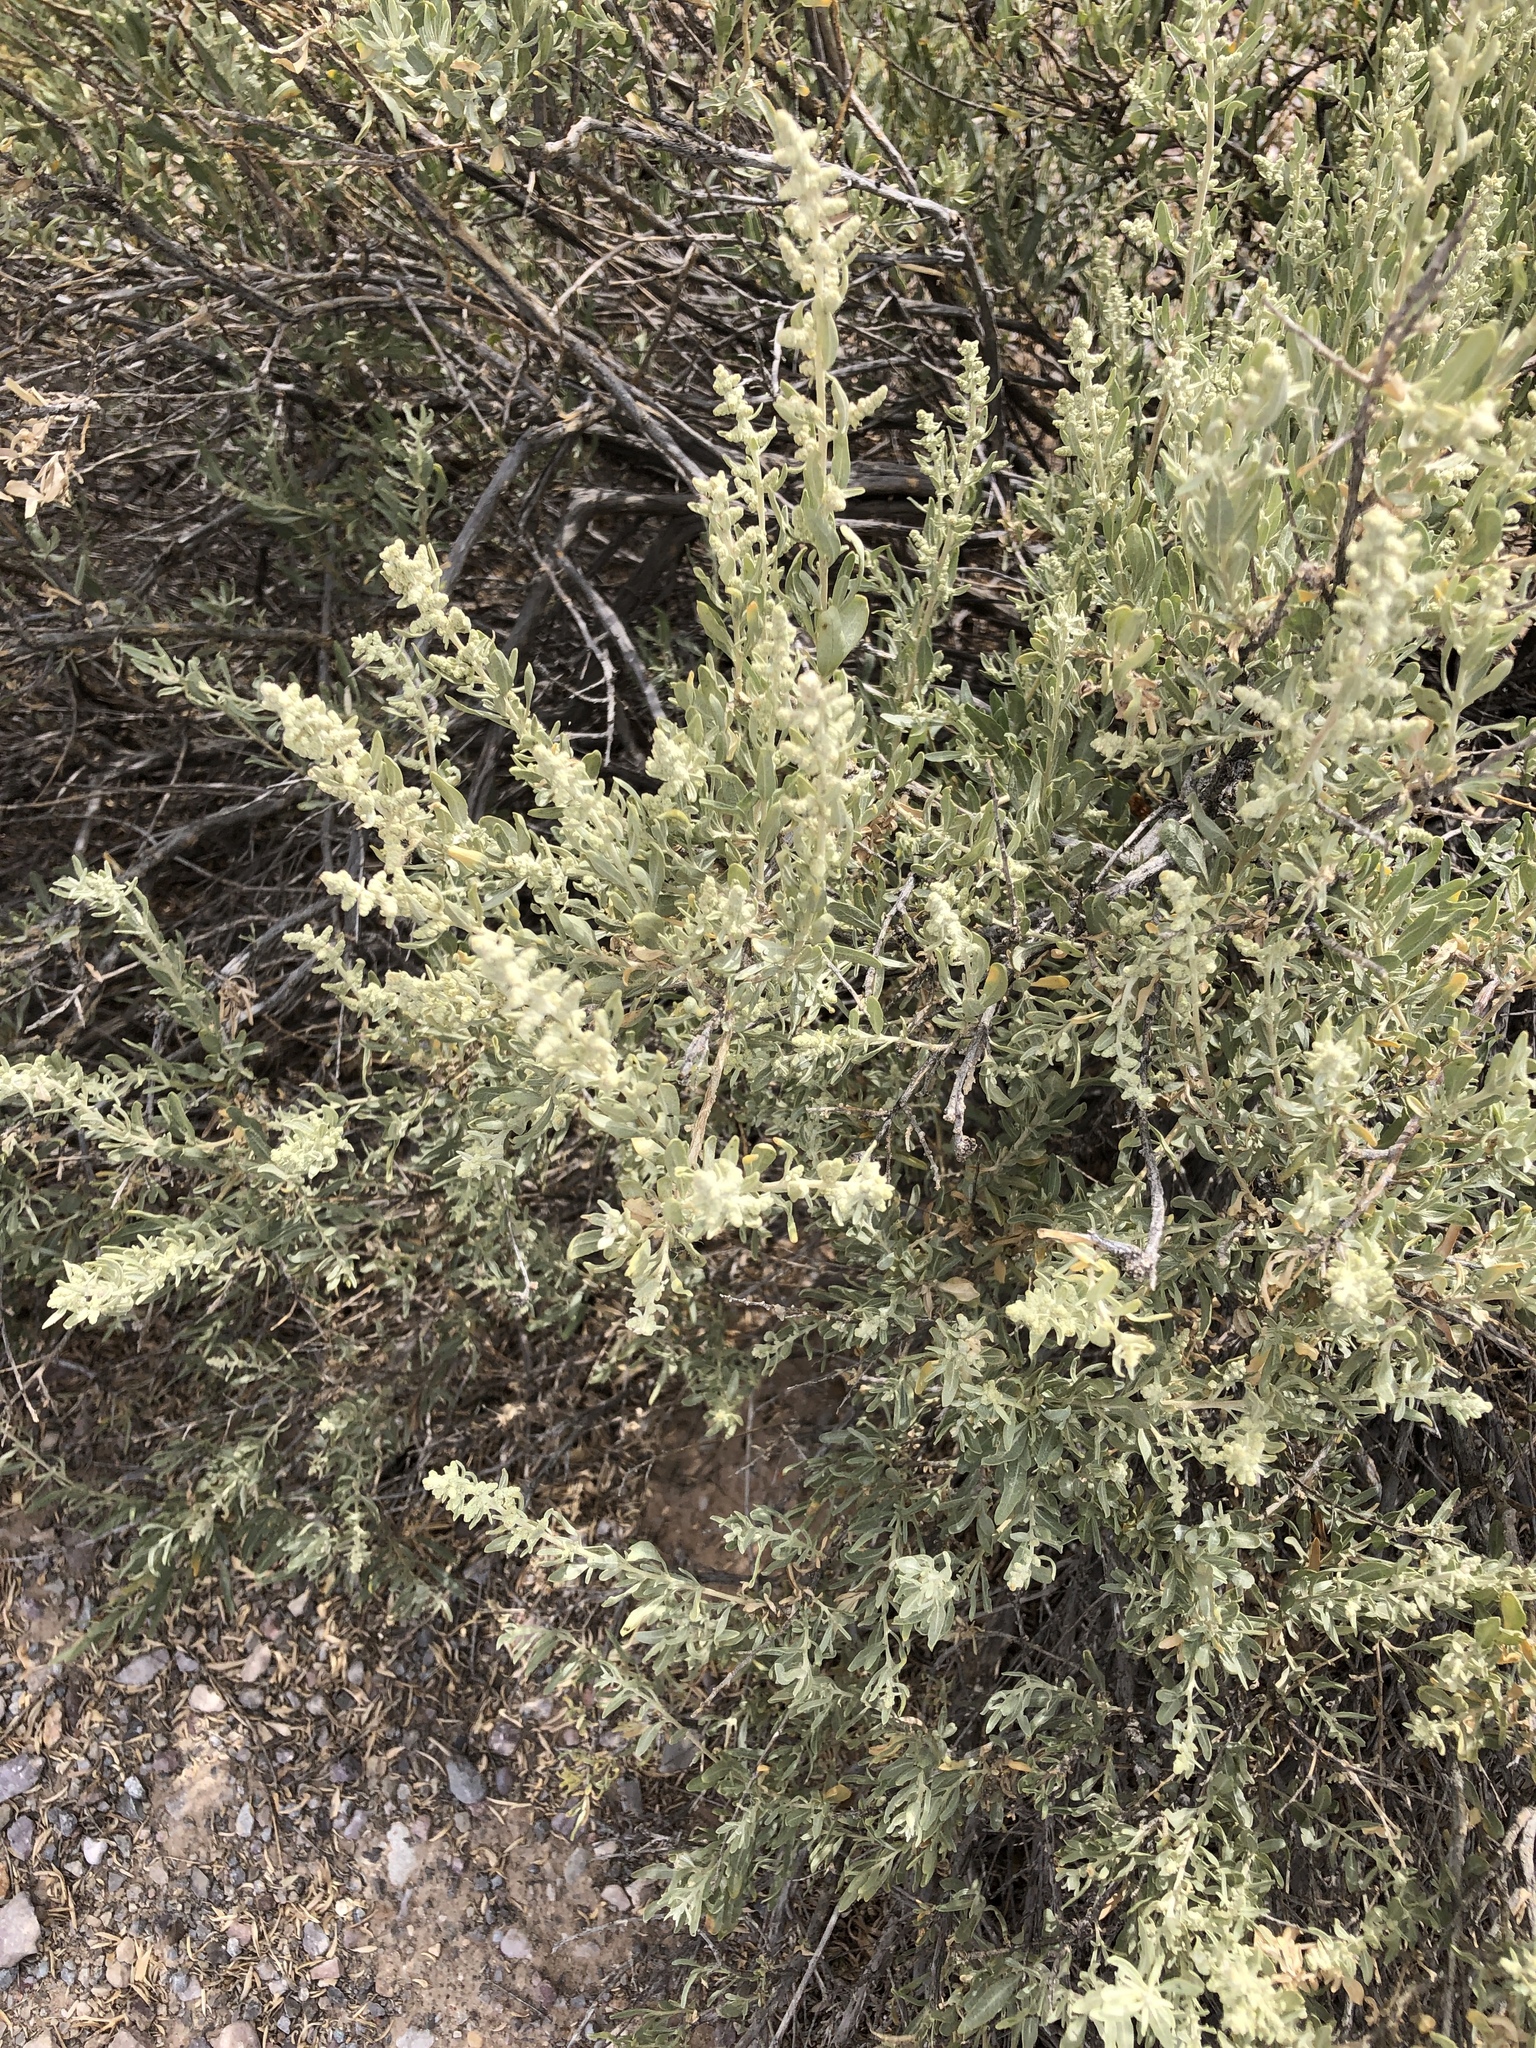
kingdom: Plantae
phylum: Tracheophyta
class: Magnoliopsida
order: Caryophyllales
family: Amaranthaceae
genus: Atriplex
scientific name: Atriplex canescens
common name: Four-wing saltbush
